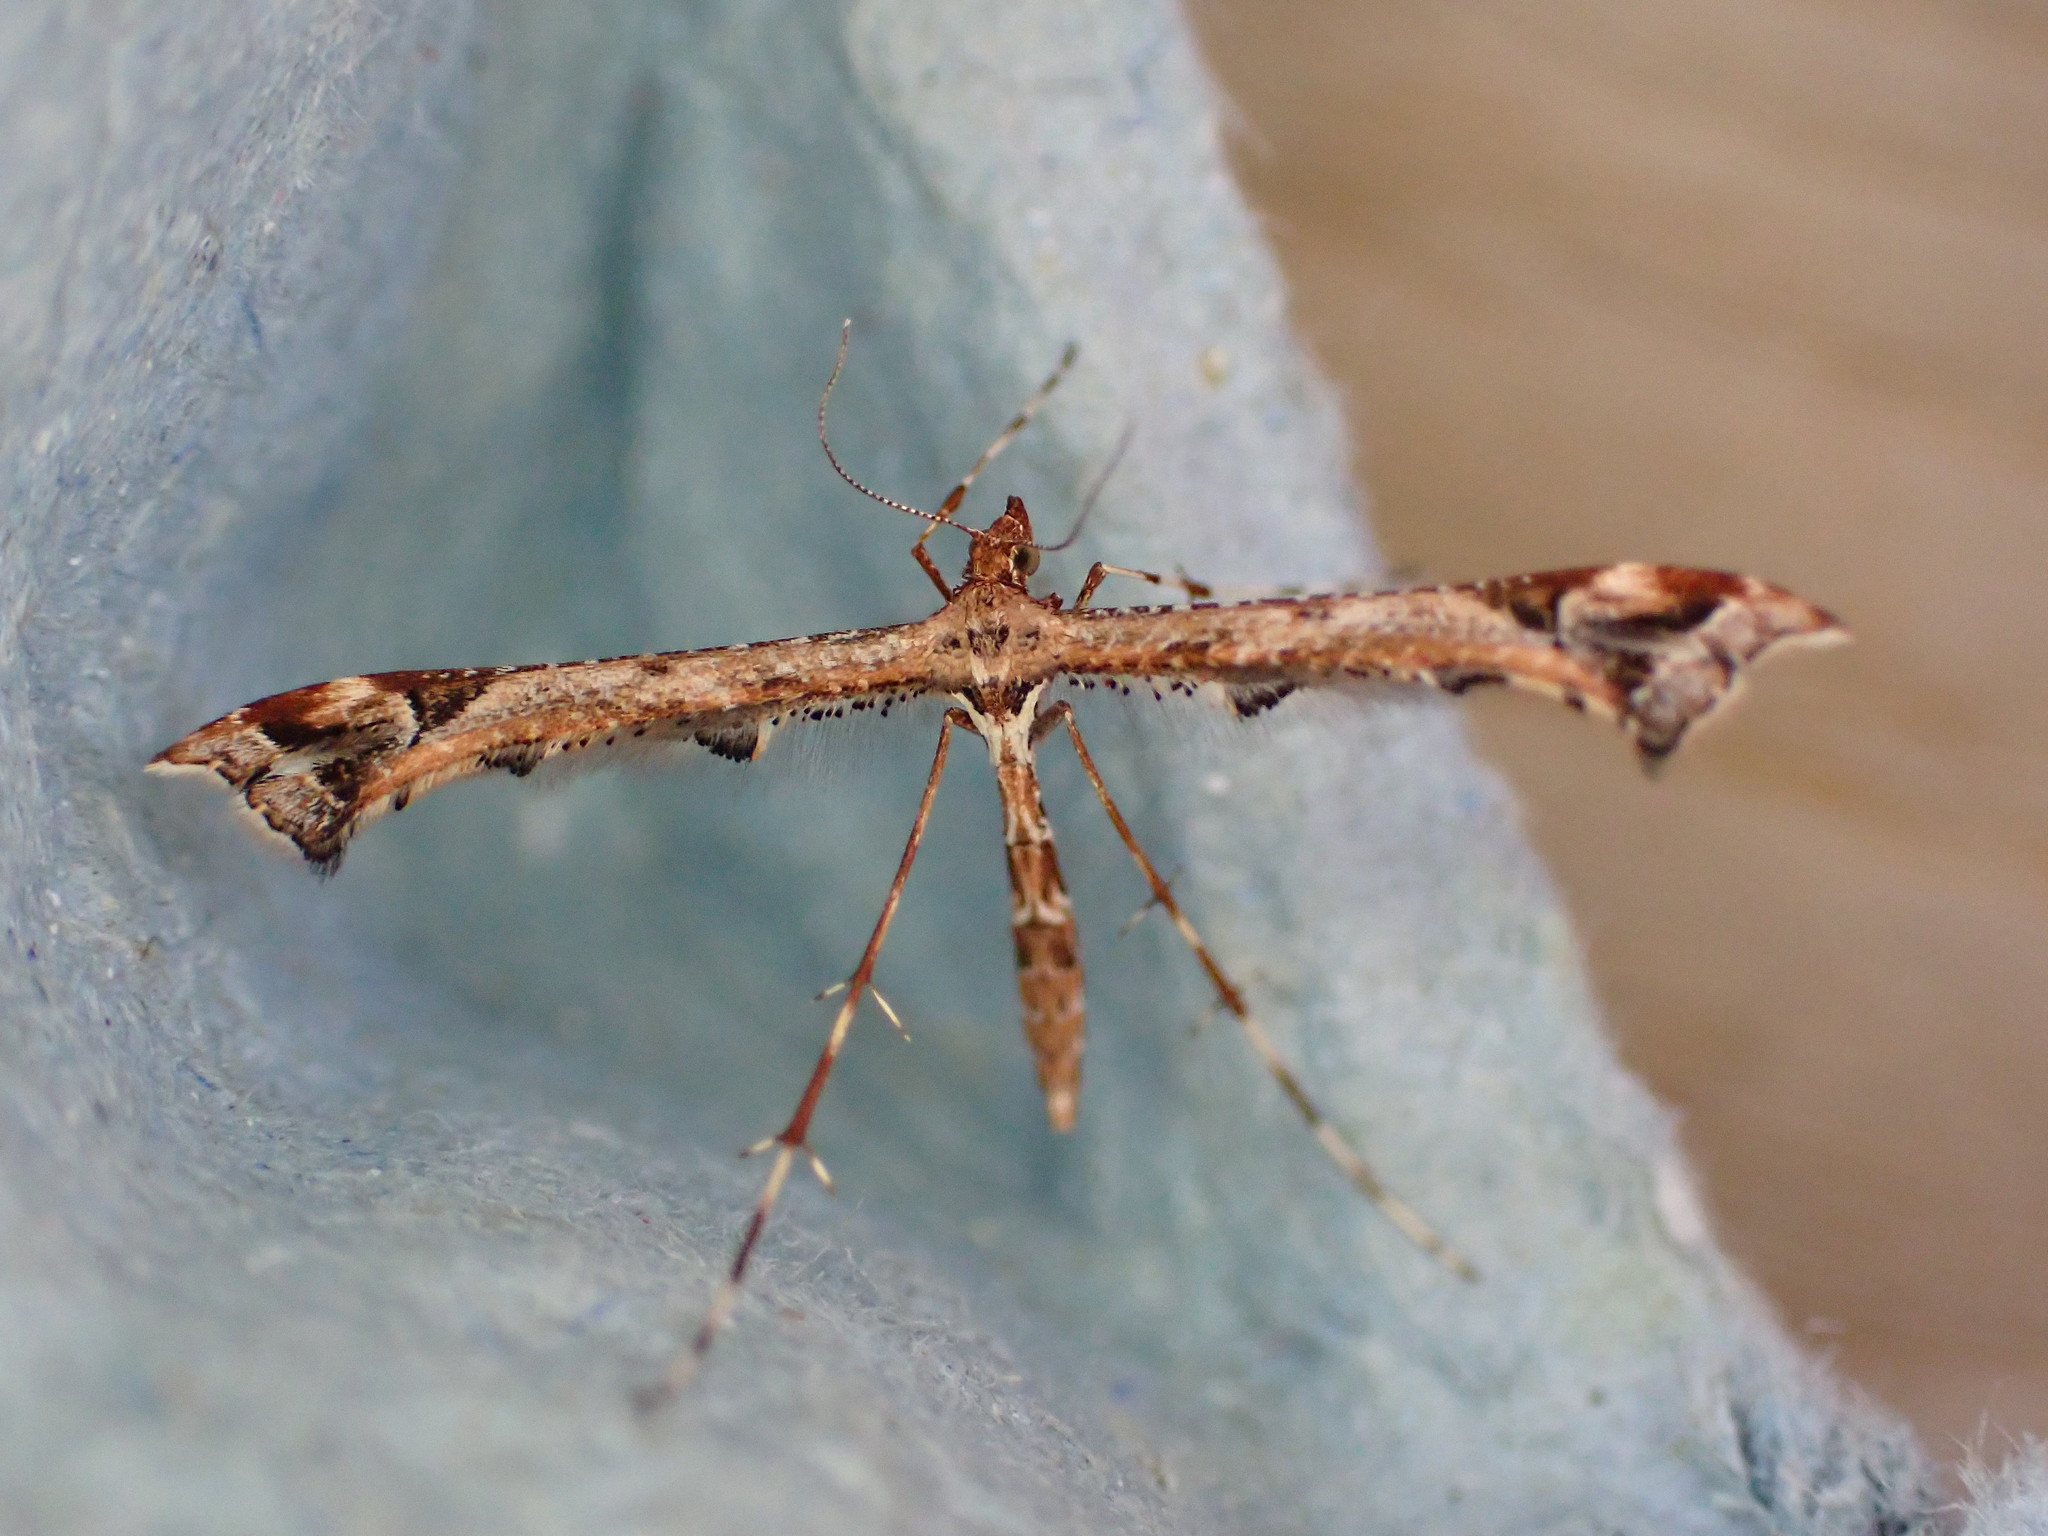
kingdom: Animalia
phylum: Arthropoda
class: Insecta
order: Lepidoptera
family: Pterophoridae
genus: Amblyptilia
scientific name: Amblyptilia acanthadactyla
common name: Beautiful plume
